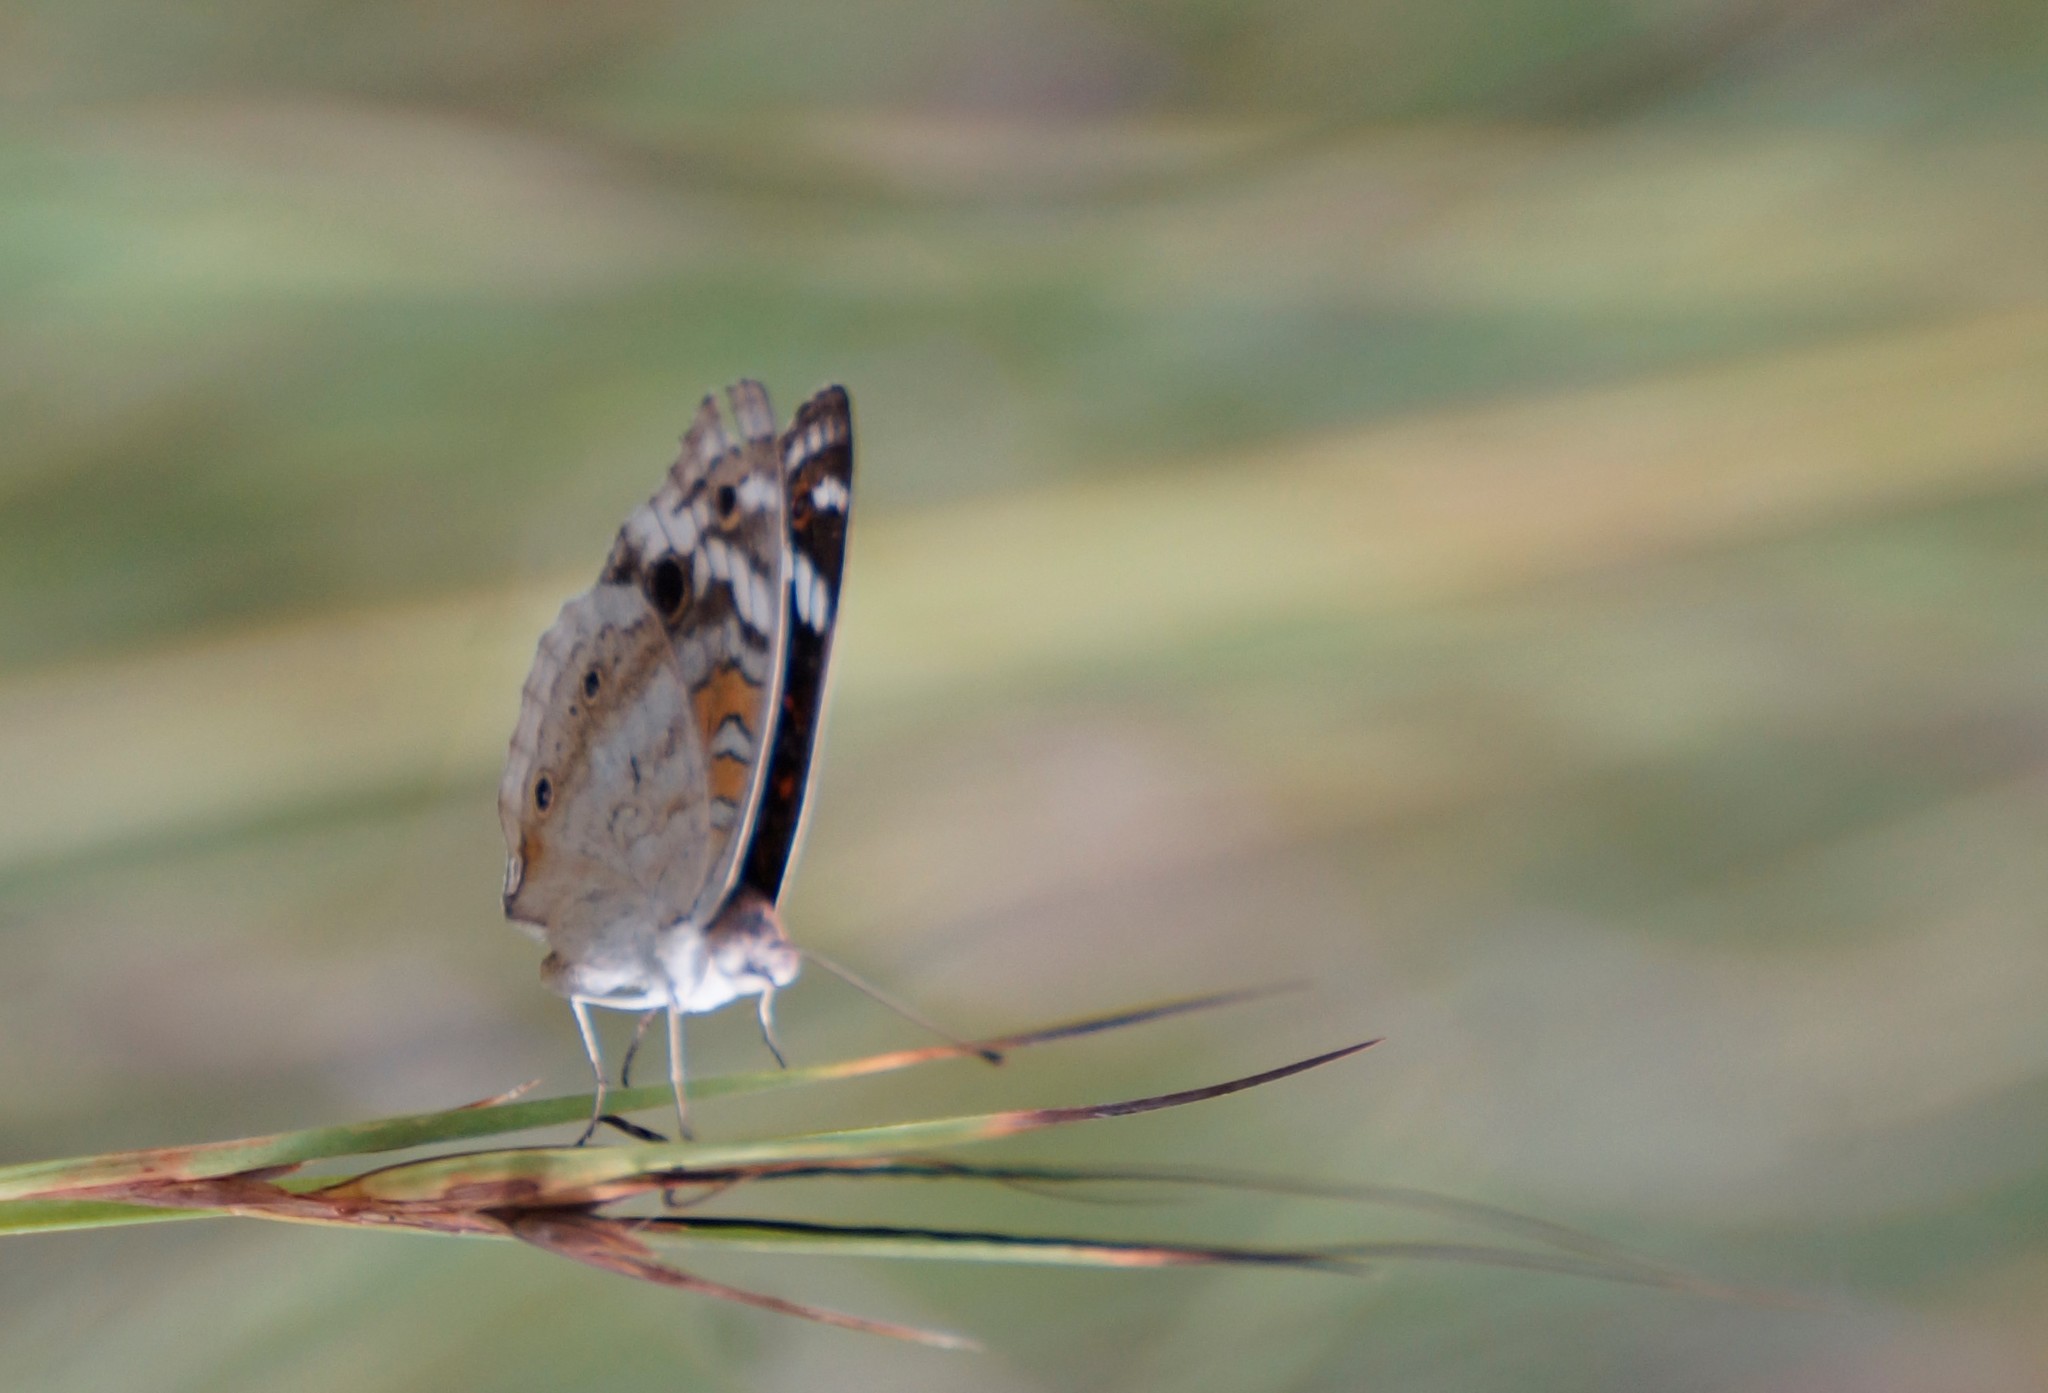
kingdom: Animalia
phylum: Arthropoda
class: Insecta
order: Lepidoptera
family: Nymphalidae
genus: Junonia
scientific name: Junonia orithya
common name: Blue pansy
